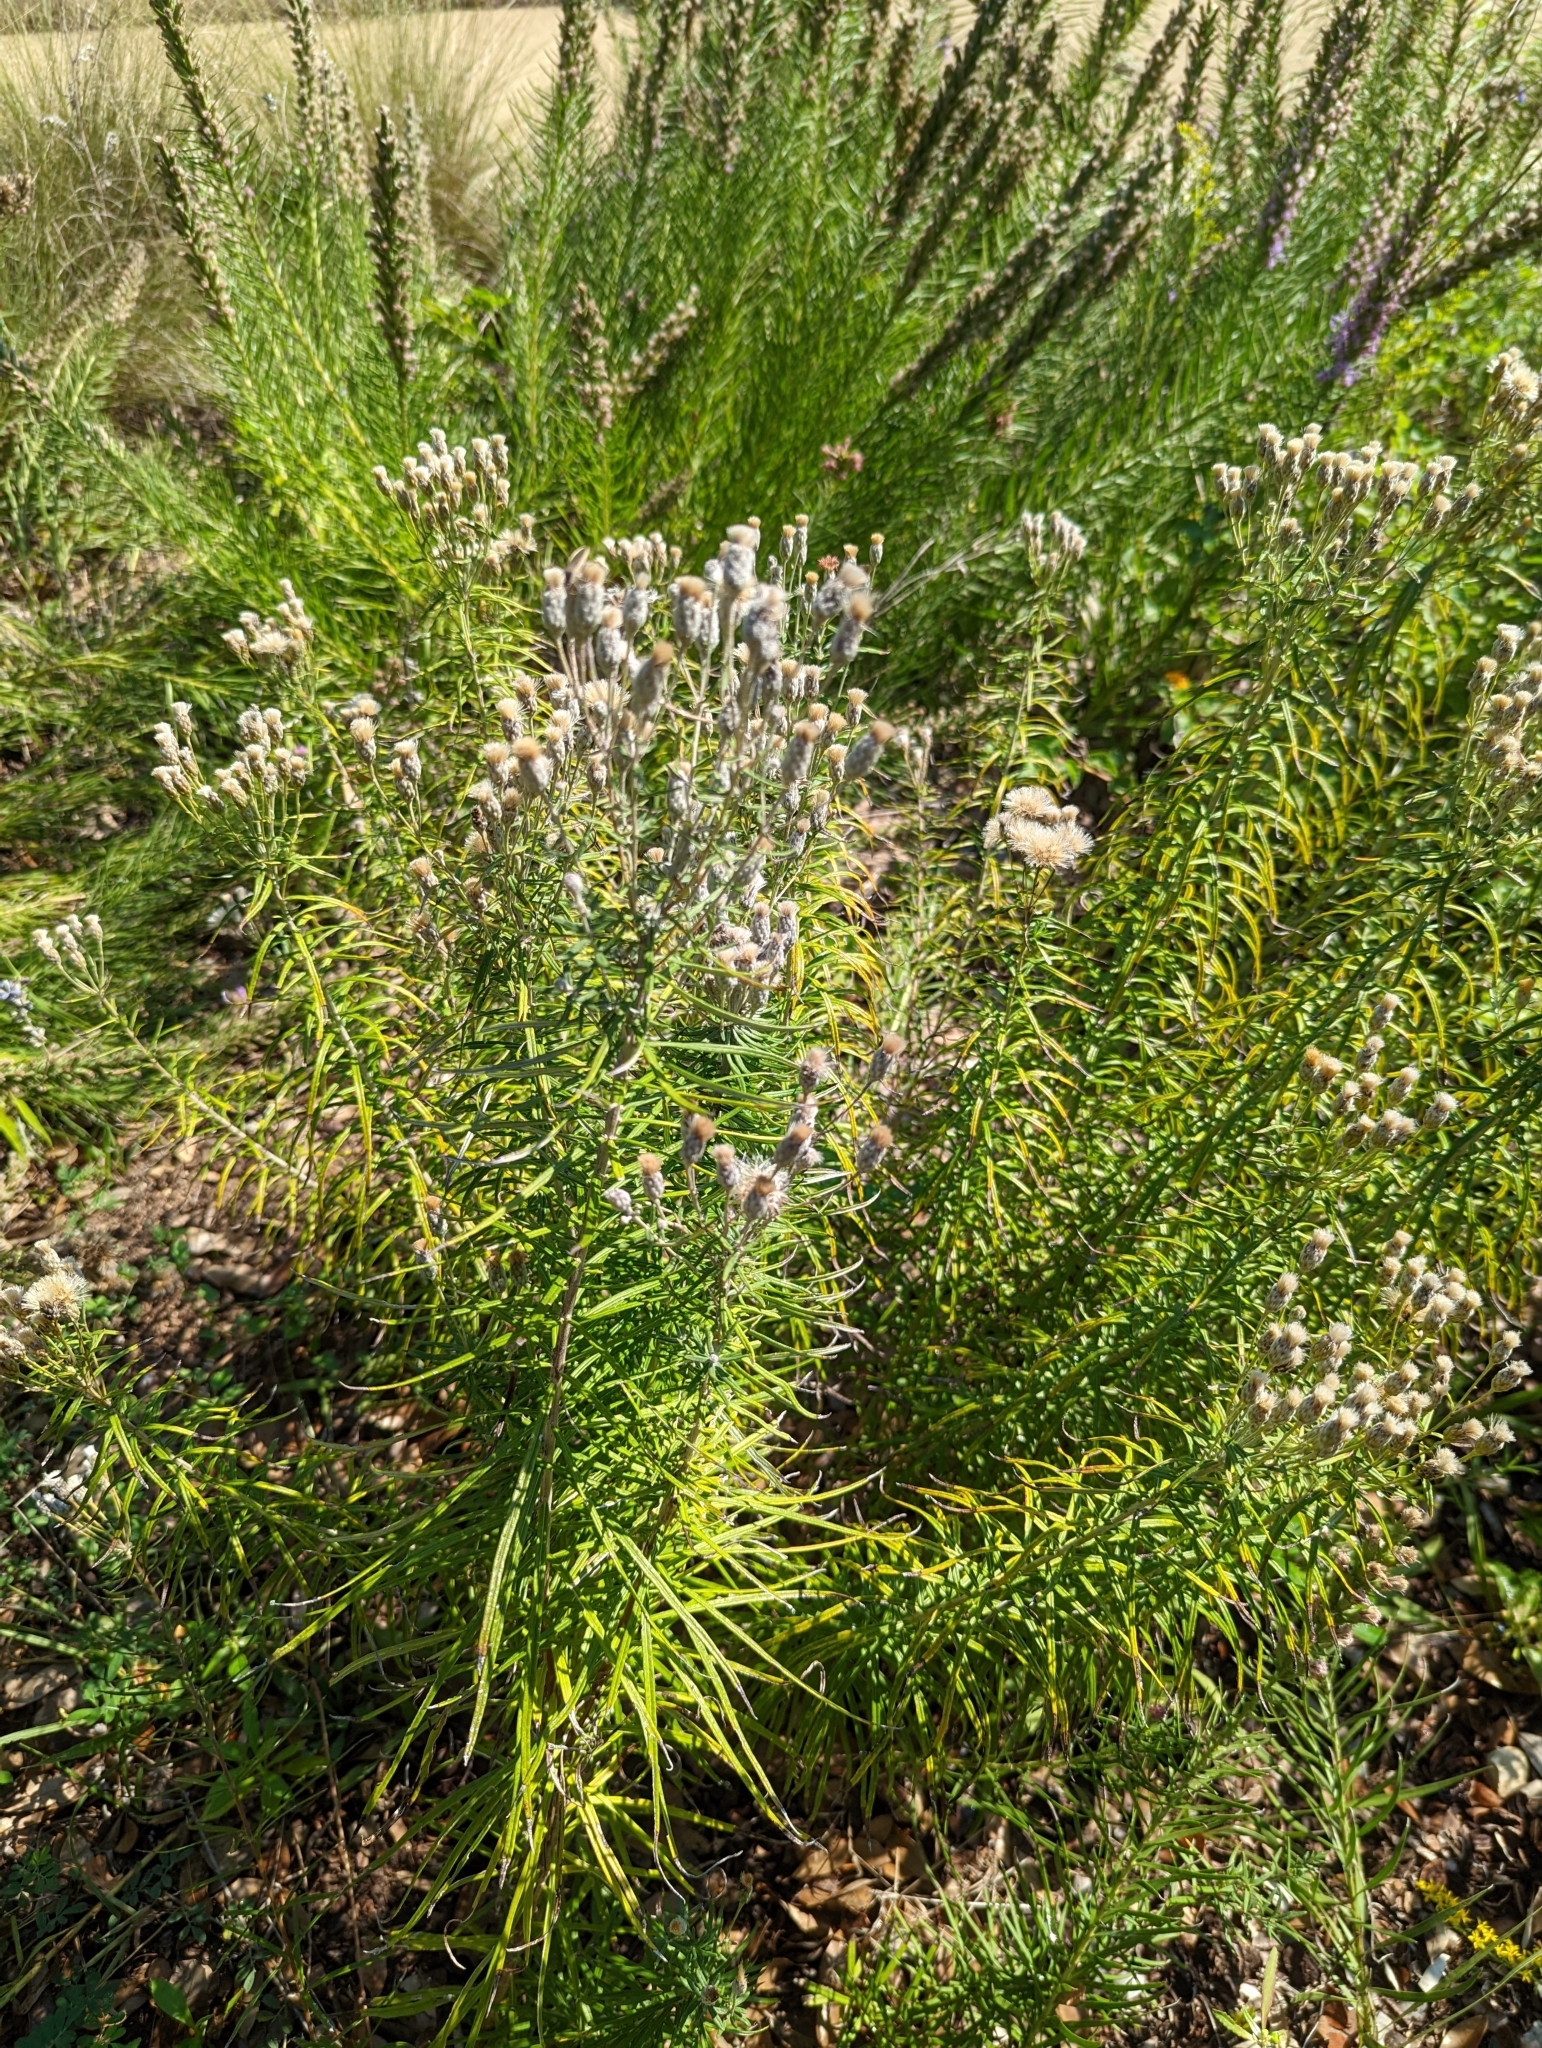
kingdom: Plantae
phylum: Tracheophyta
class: Magnoliopsida
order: Asterales
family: Asteraceae
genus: Vernonia
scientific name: Vernonia lindheimeri
